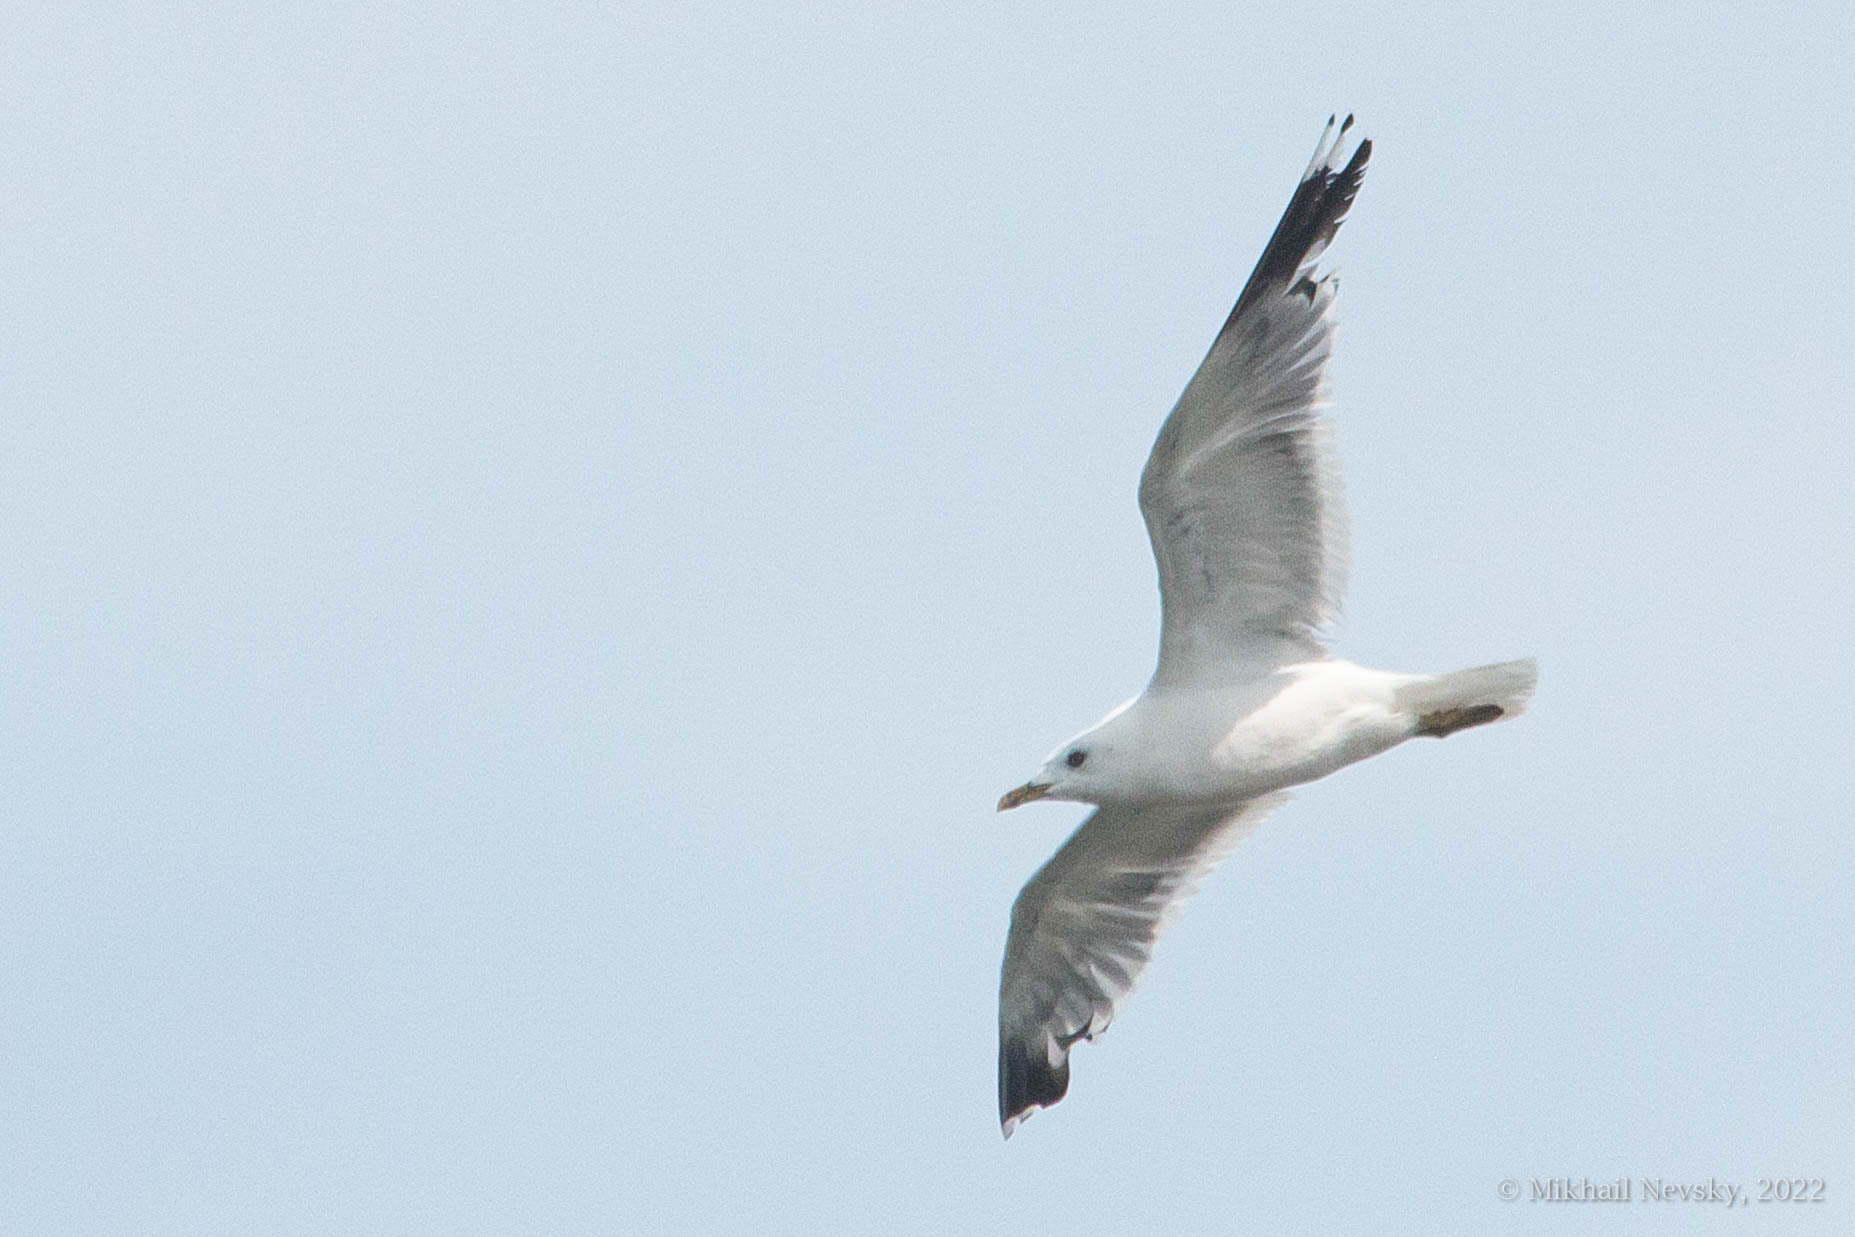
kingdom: Animalia
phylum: Chordata
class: Aves
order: Charadriiformes
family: Laridae
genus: Larus
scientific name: Larus canus
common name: Mew gull
